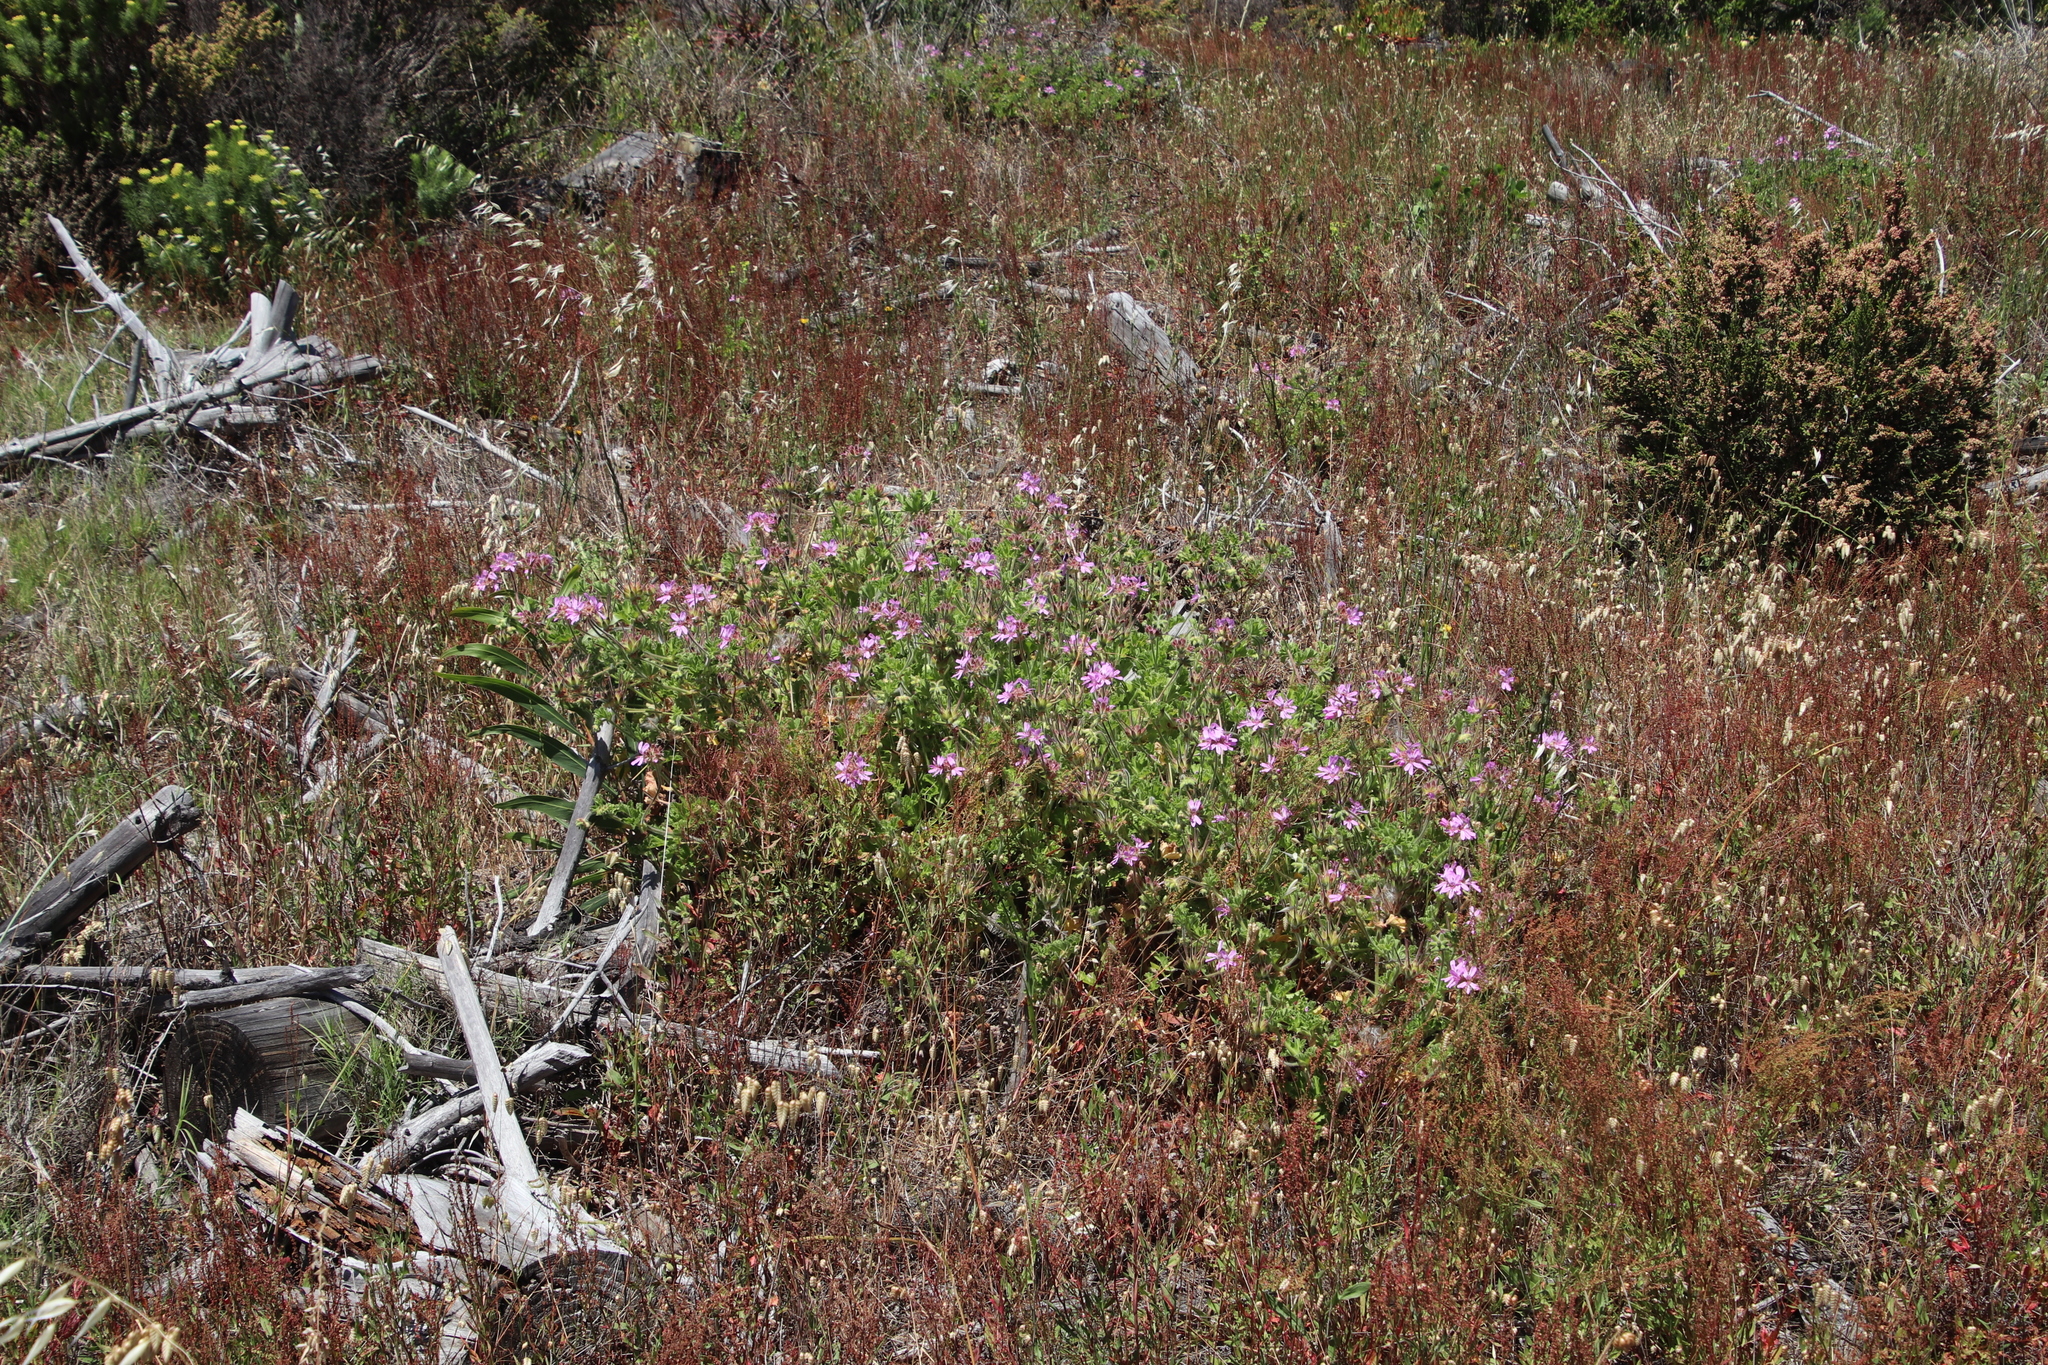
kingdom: Plantae
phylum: Tracheophyta
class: Magnoliopsida
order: Geraniales
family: Geraniaceae
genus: Pelargonium
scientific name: Pelargonium capitatum
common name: Rose scented geranium
